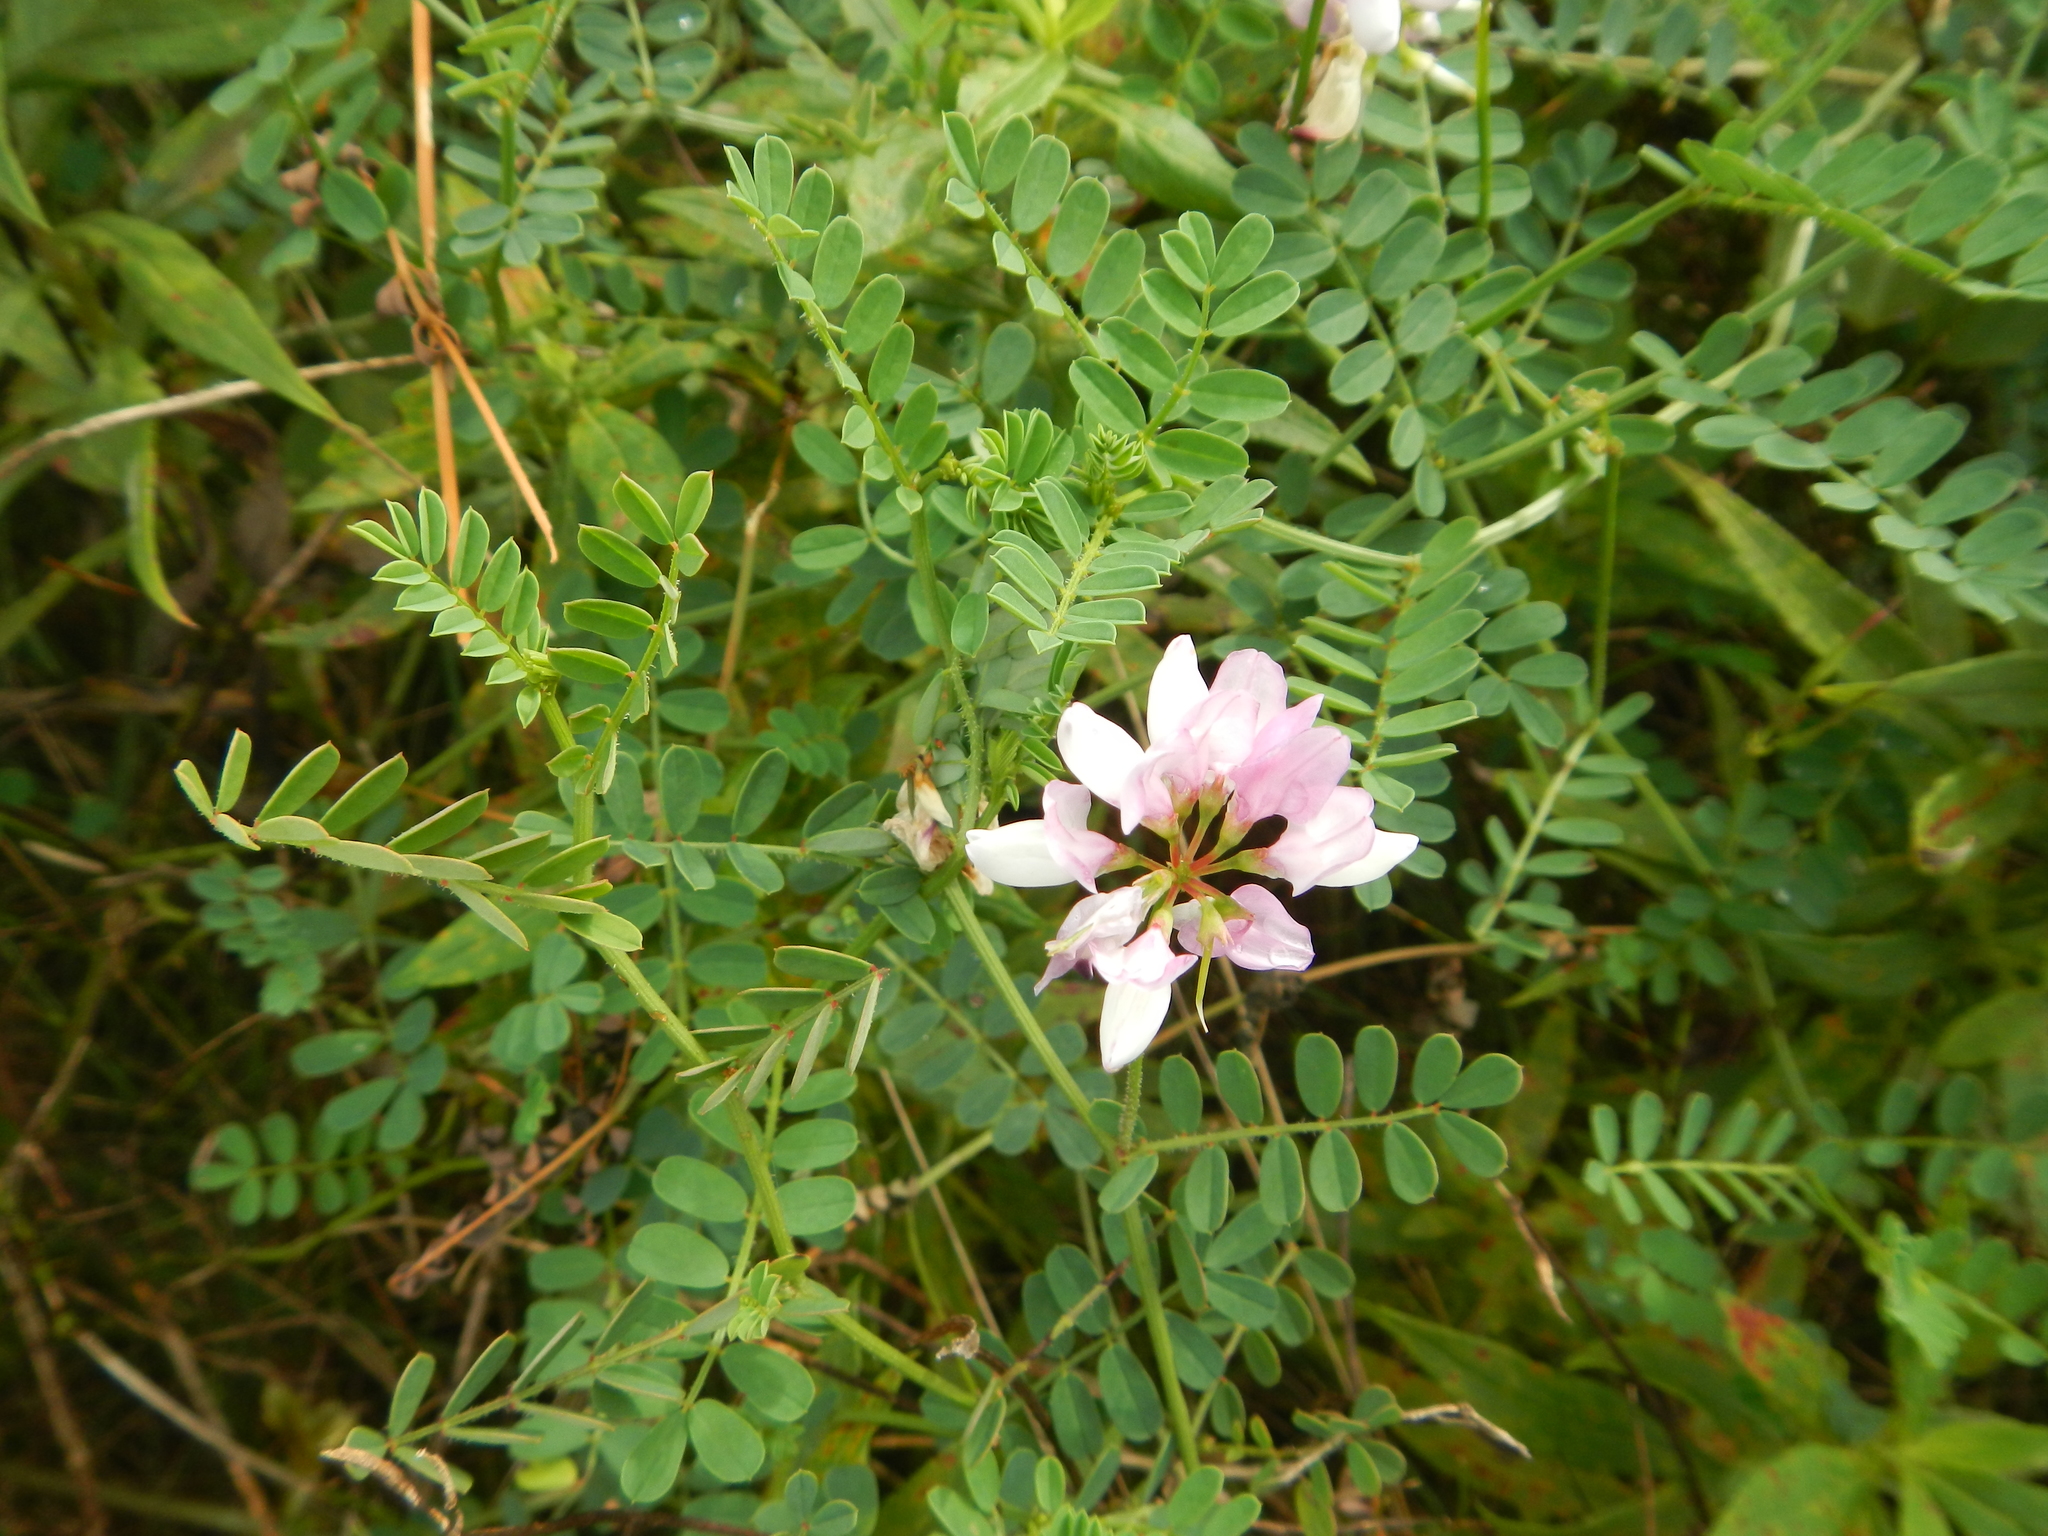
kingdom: Plantae
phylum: Tracheophyta
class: Magnoliopsida
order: Fabales
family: Fabaceae
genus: Coronilla
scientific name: Coronilla varia
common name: Crownvetch
